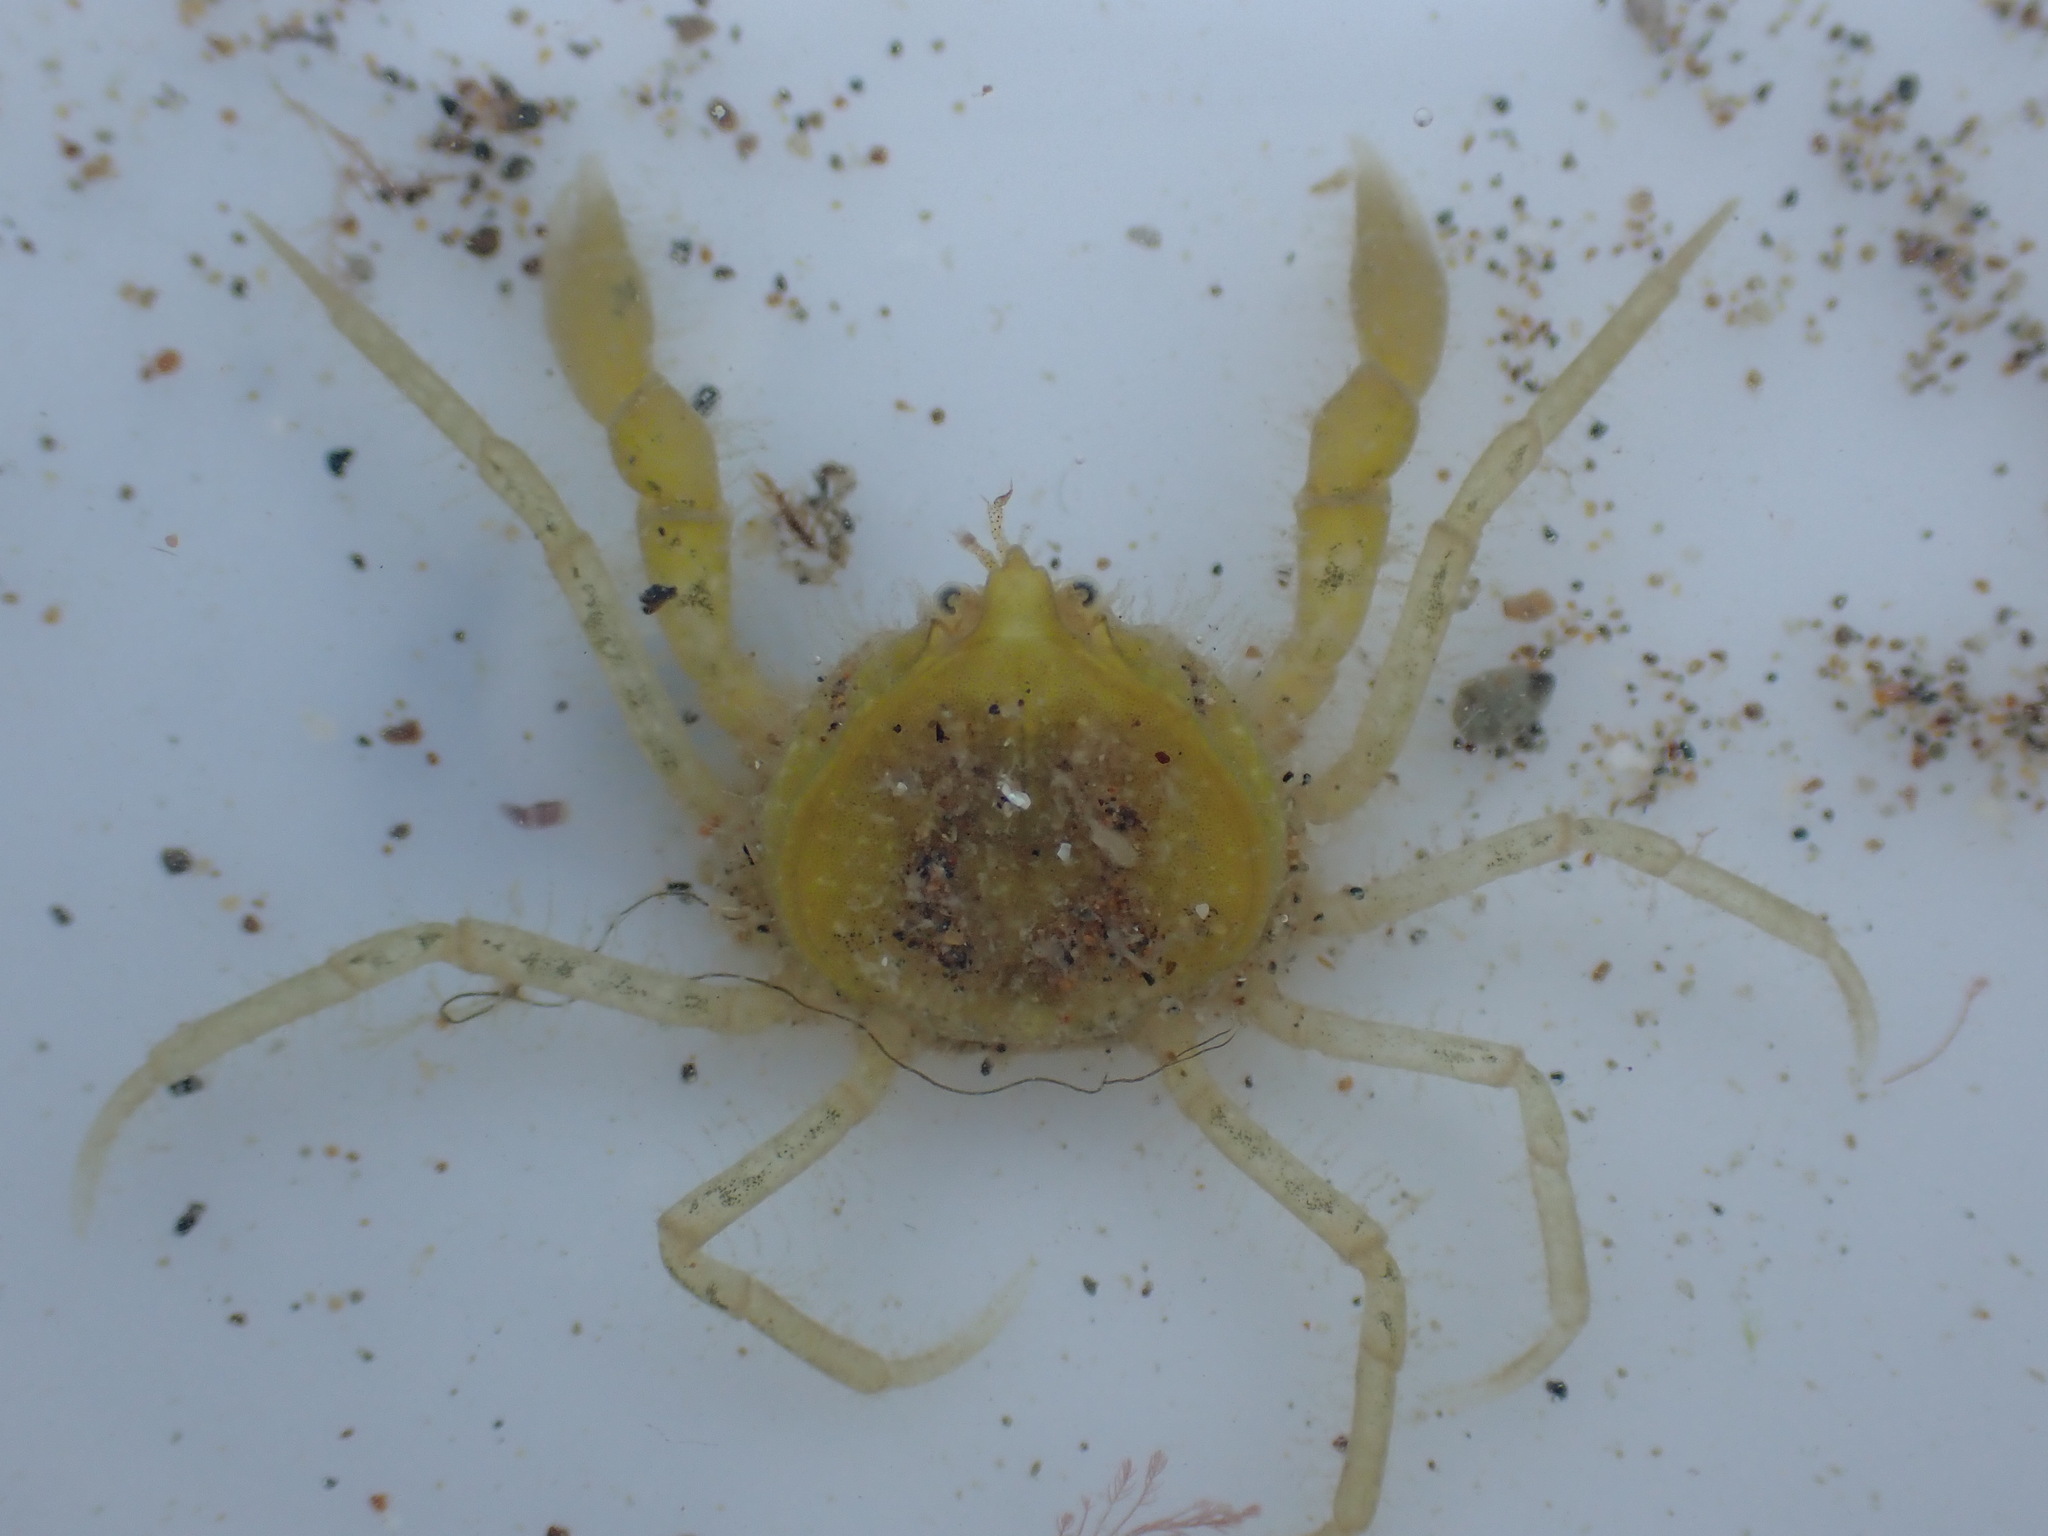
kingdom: Animalia
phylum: Arthropoda
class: Malacostraca
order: Decapoda
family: Hymenosomatidae
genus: Halicarcinus
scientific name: Halicarcinus whitei
